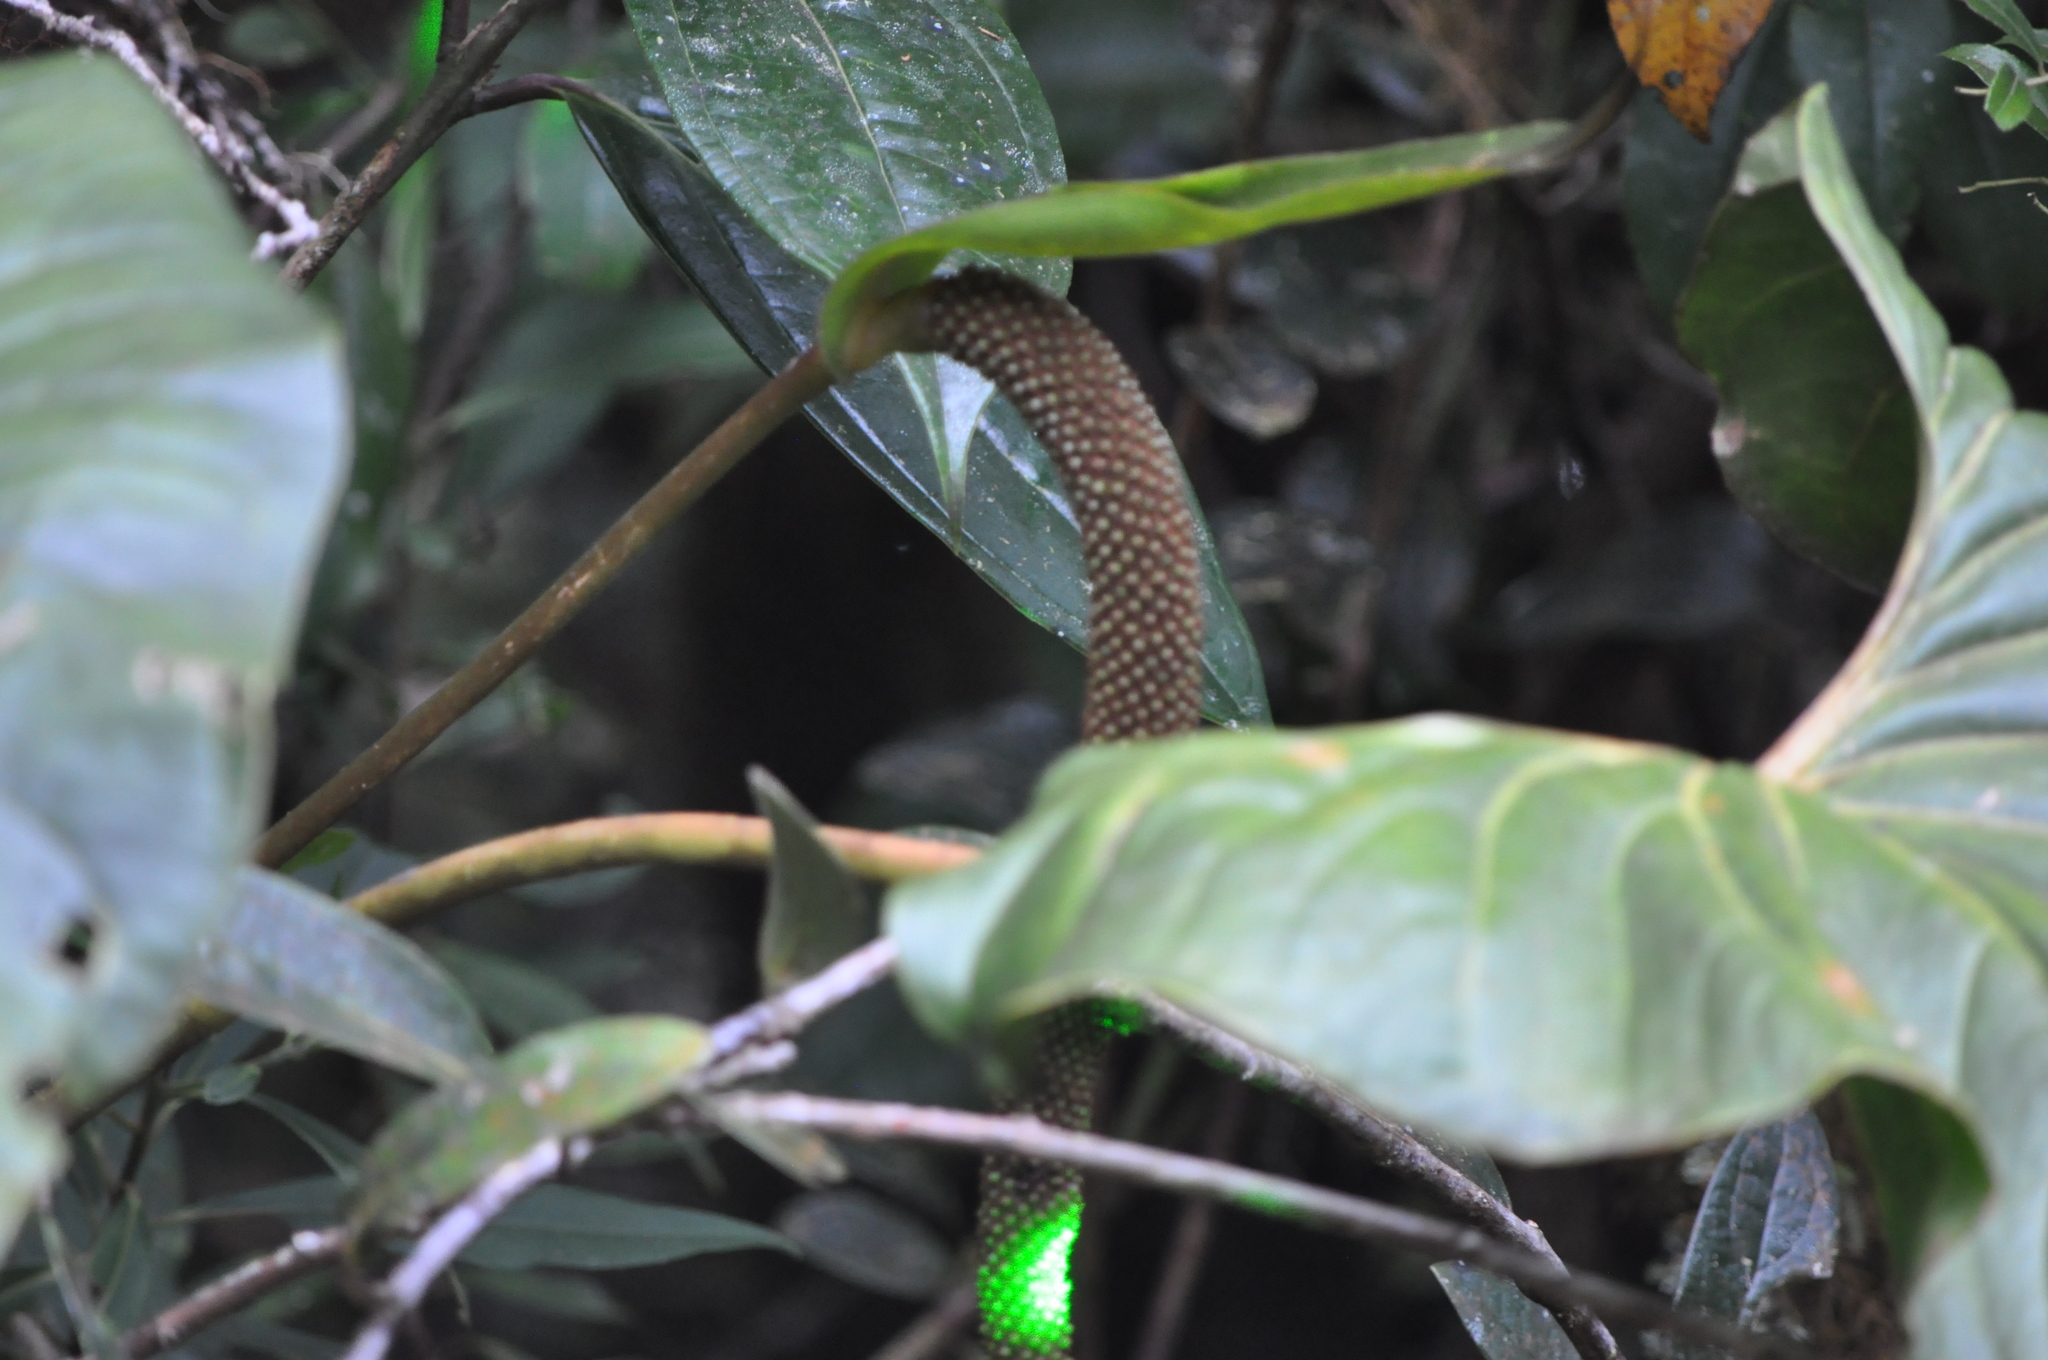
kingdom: Plantae
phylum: Tracheophyta
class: Liliopsida
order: Alismatales
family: Araceae
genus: Anthurium
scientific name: Anthurium concinnatum
